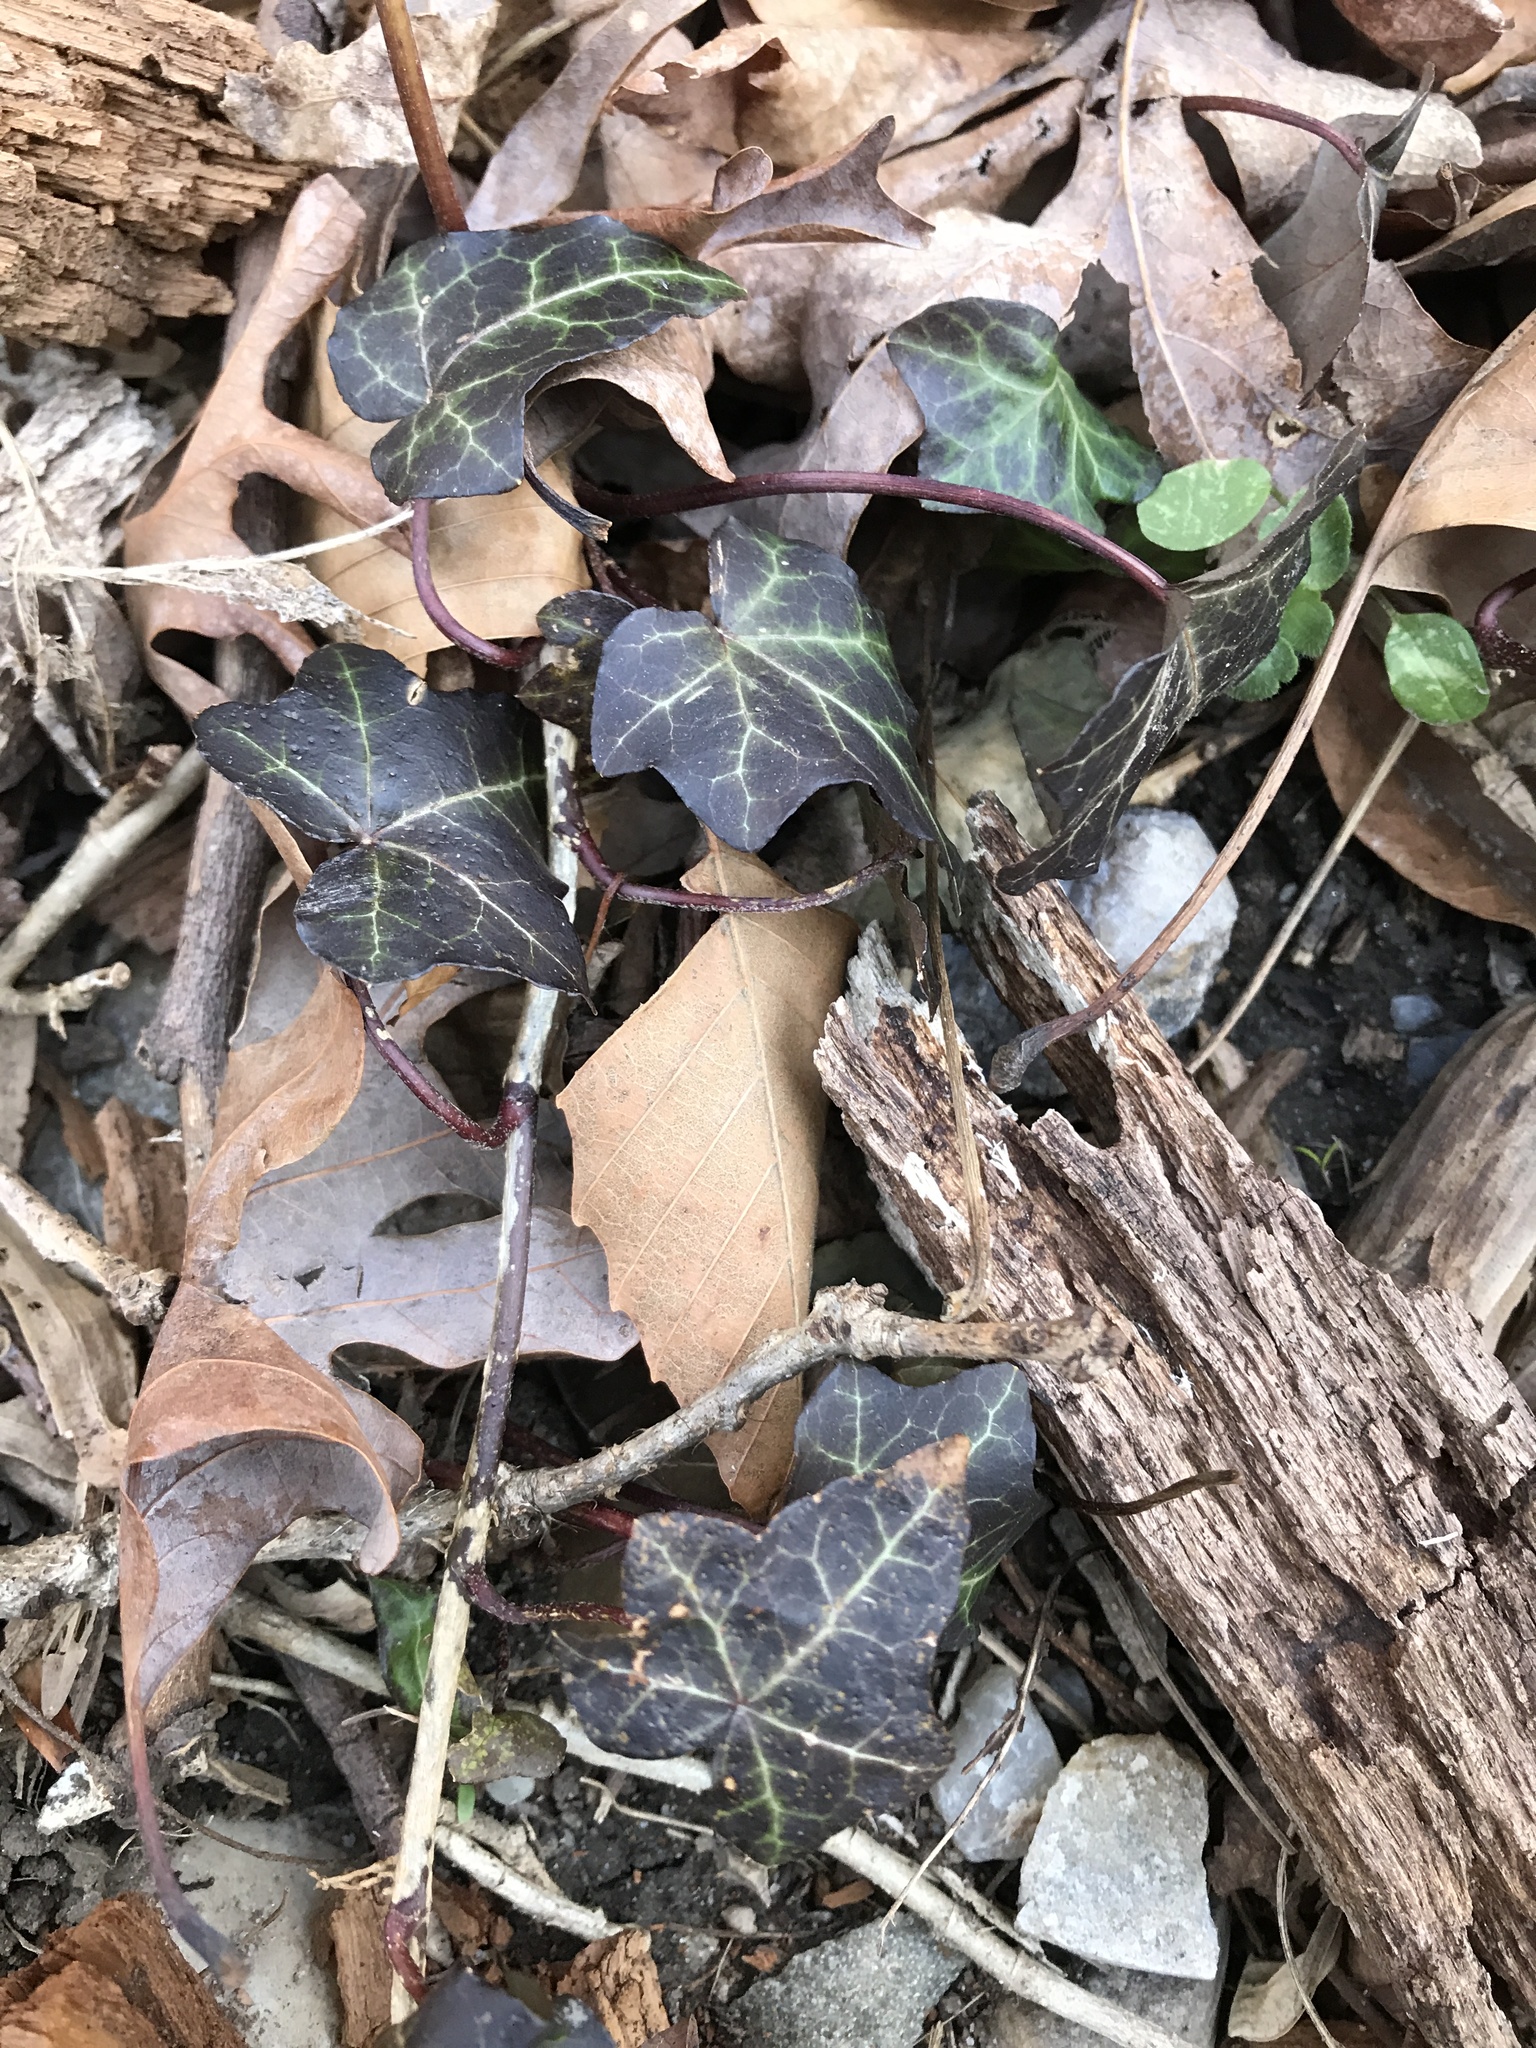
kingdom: Plantae
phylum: Tracheophyta
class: Magnoliopsida
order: Apiales
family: Araliaceae
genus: Hedera
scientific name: Hedera helix
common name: Ivy
